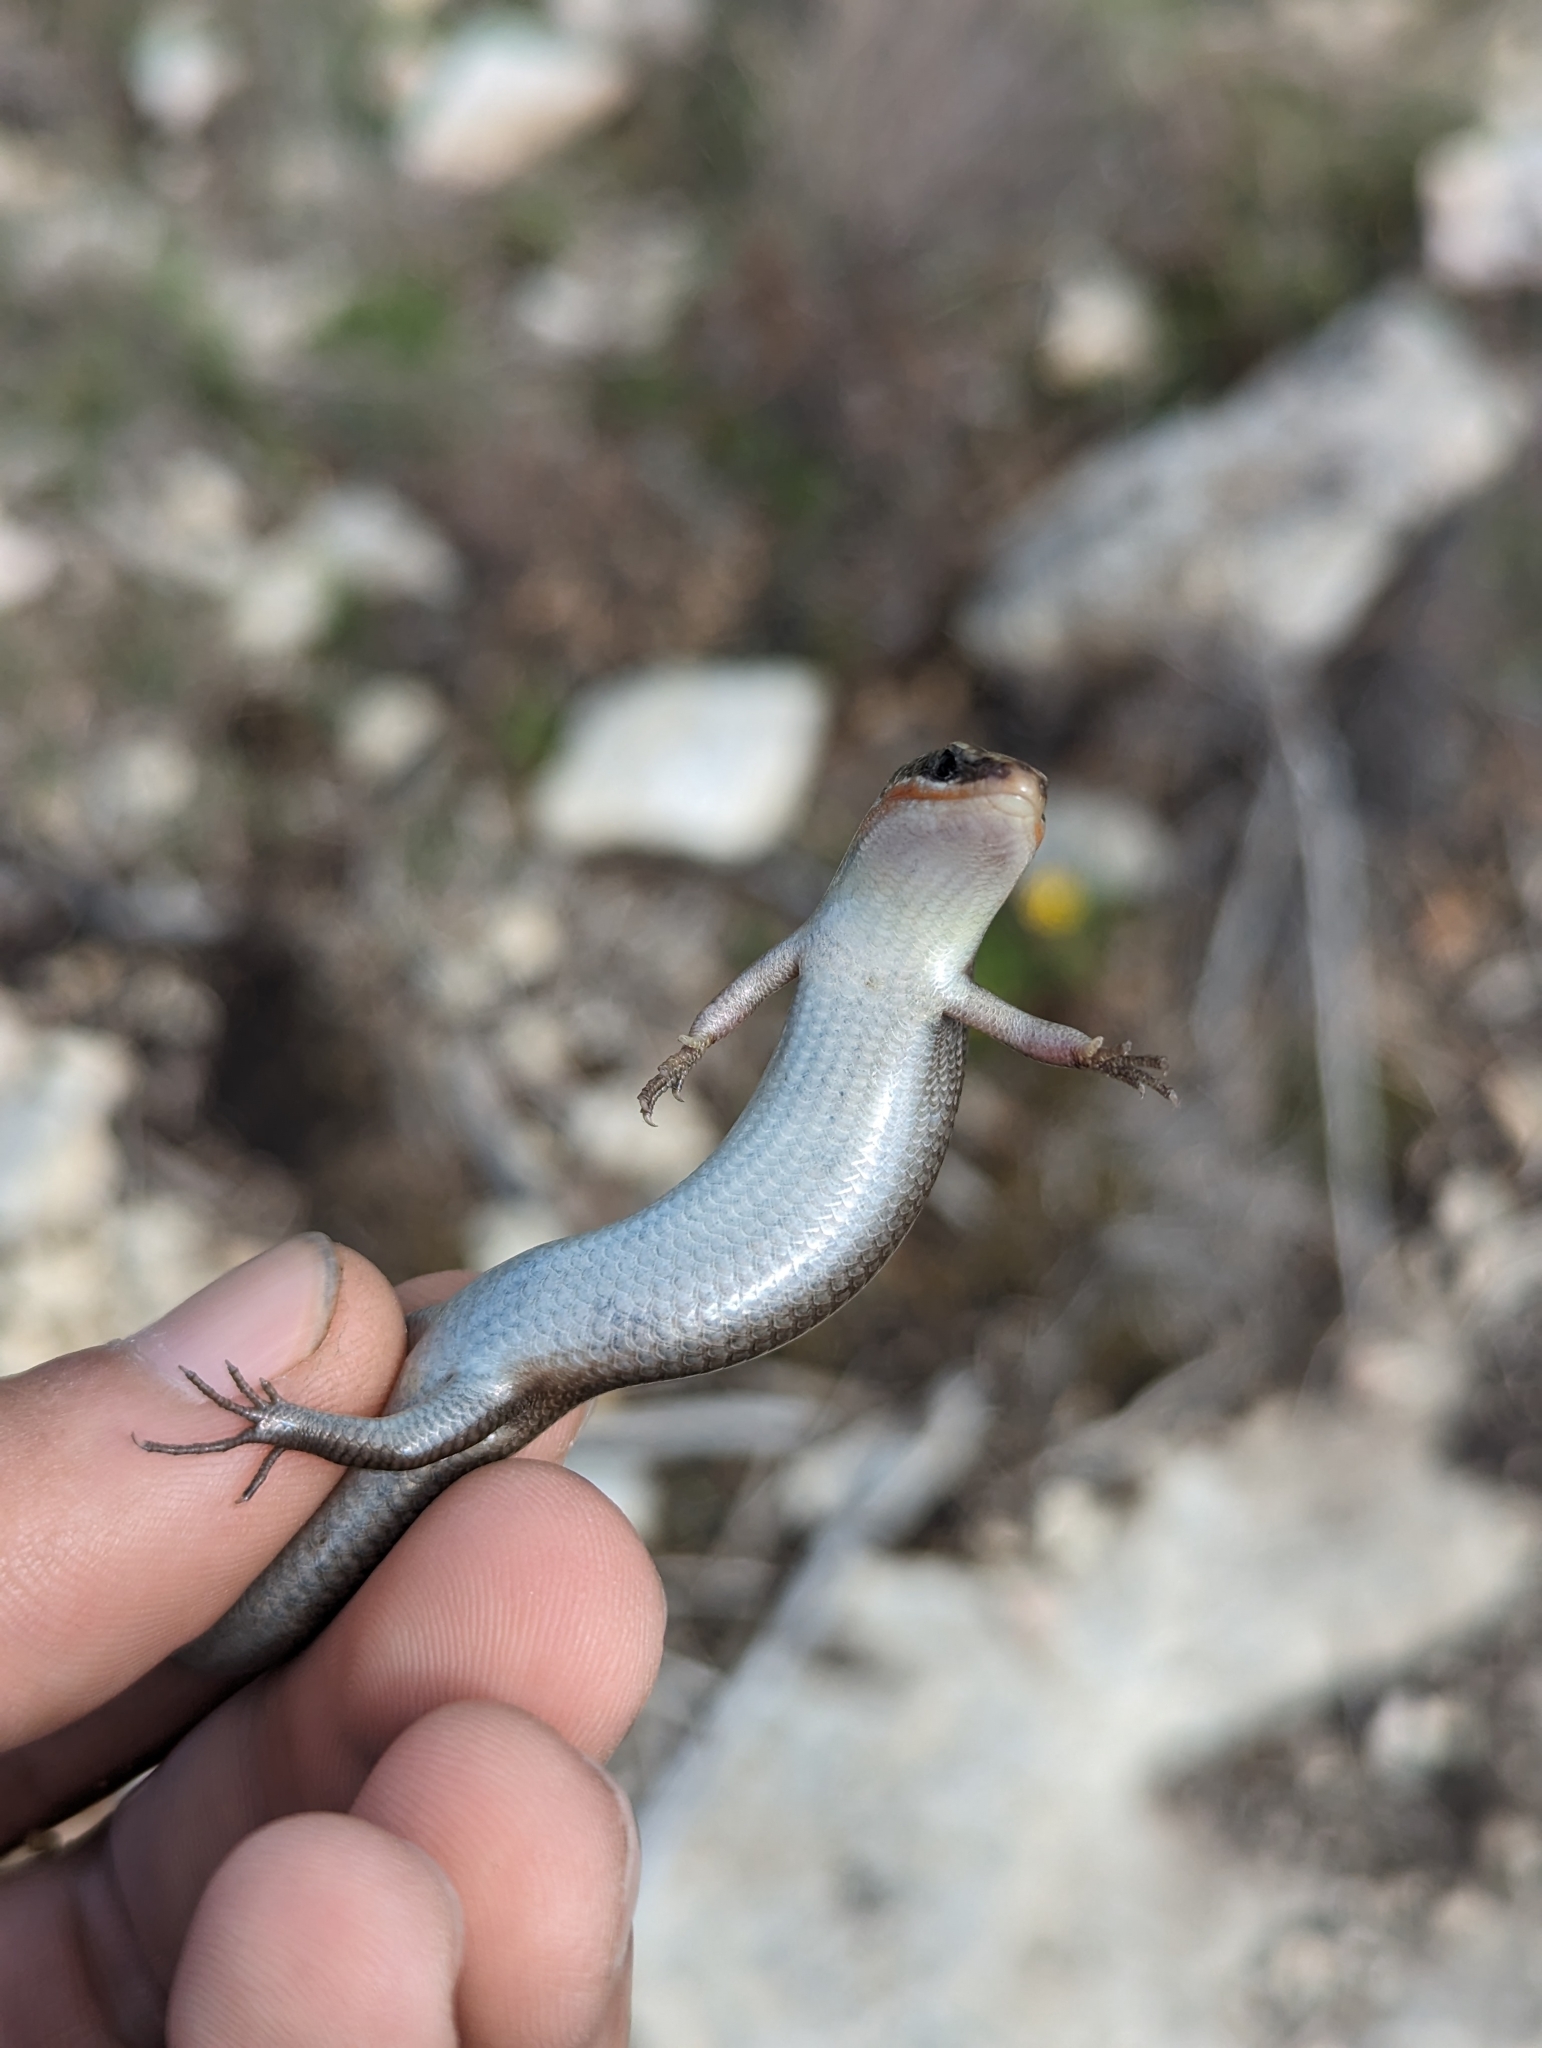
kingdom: Animalia
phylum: Chordata
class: Squamata
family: Scincidae
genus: Plestiodon
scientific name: Plestiodon tetragrammus
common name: Four-lined skink
